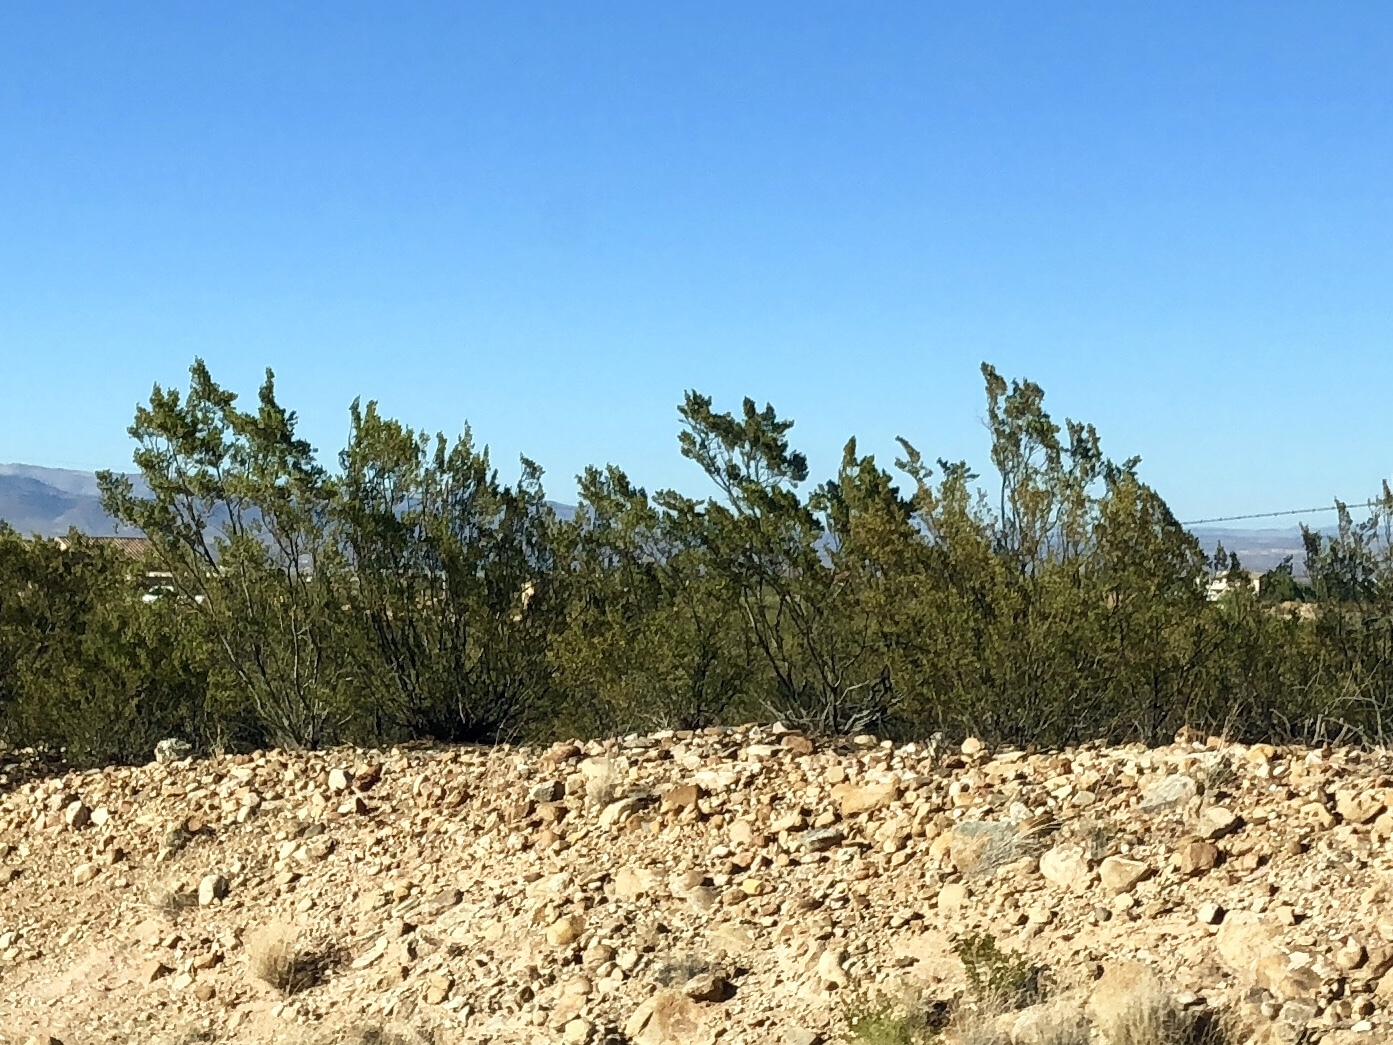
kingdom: Plantae
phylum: Tracheophyta
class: Magnoliopsida
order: Zygophyllales
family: Zygophyllaceae
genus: Larrea
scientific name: Larrea tridentata
